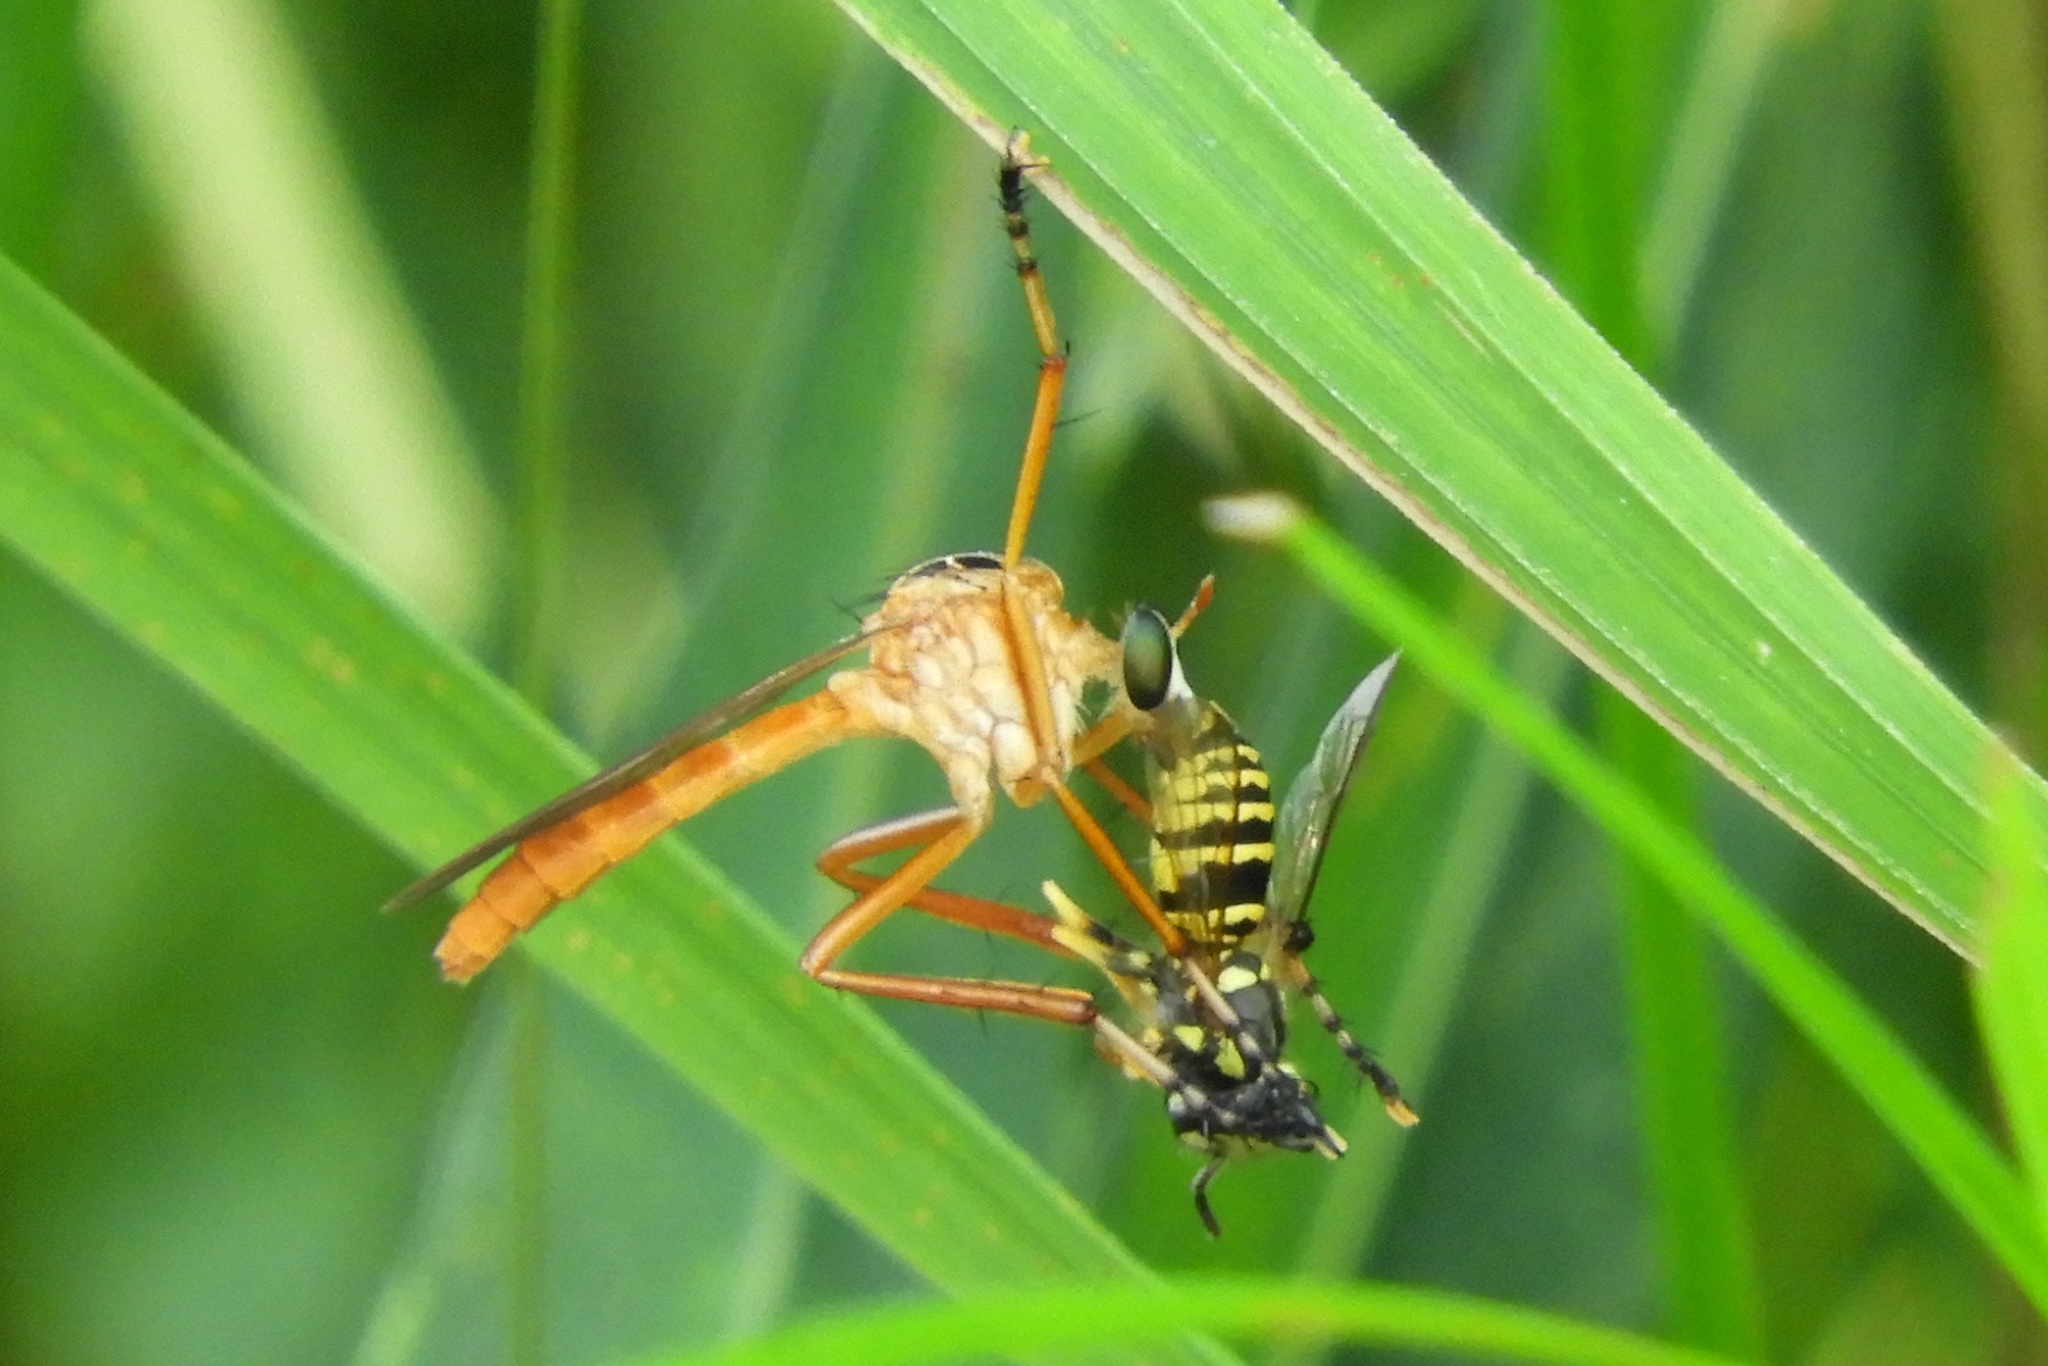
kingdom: Animalia
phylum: Arthropoda
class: Insecta
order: Hymenoptera
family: Vespidae
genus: Vespula
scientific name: Vespula maculifrons
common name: Eastern yellowjacket
